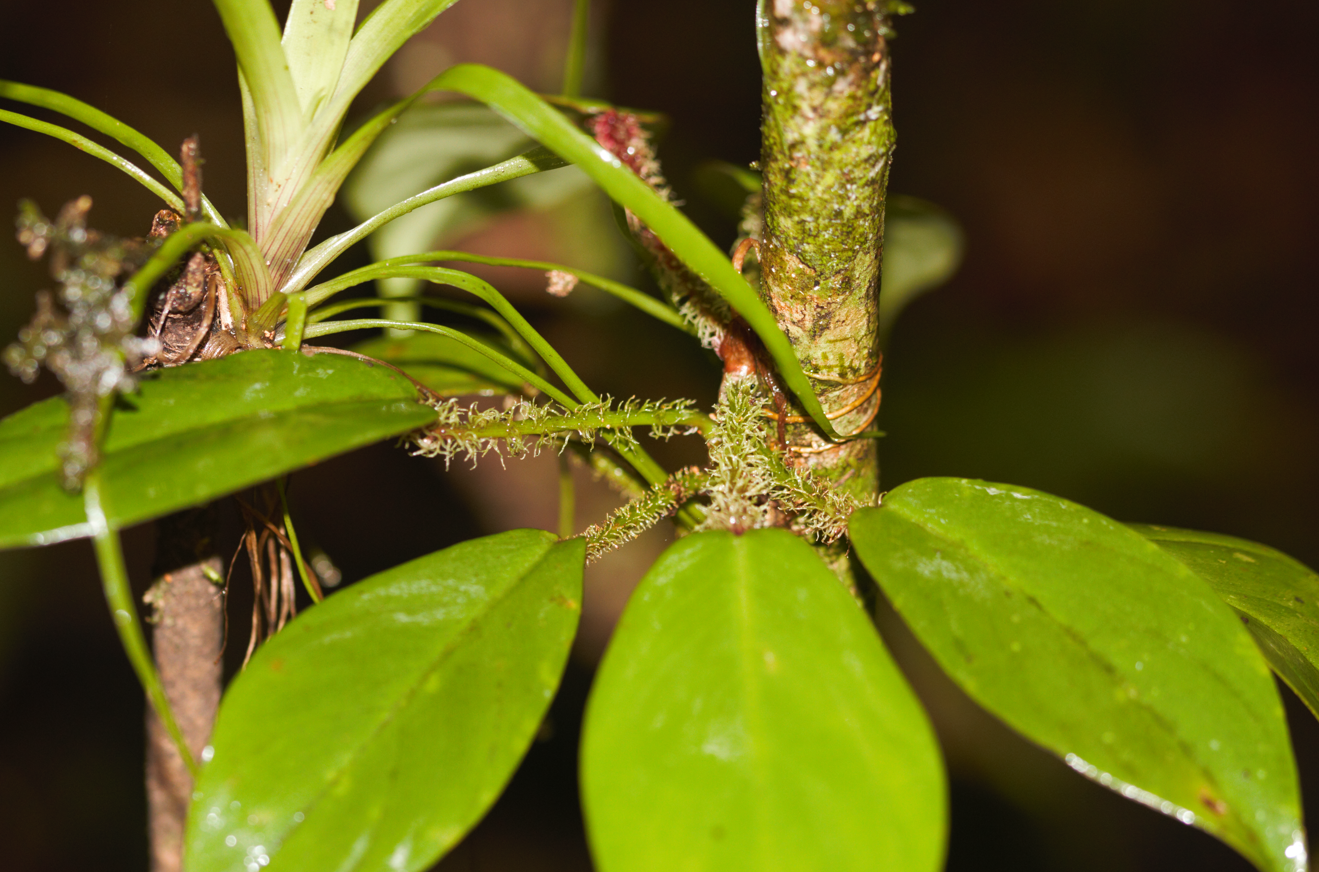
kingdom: Plantae
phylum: Tracheophyta
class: Liliopsida
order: Alismatales
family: Araceae
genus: Philodendron
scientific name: Philodendron squamiferum
